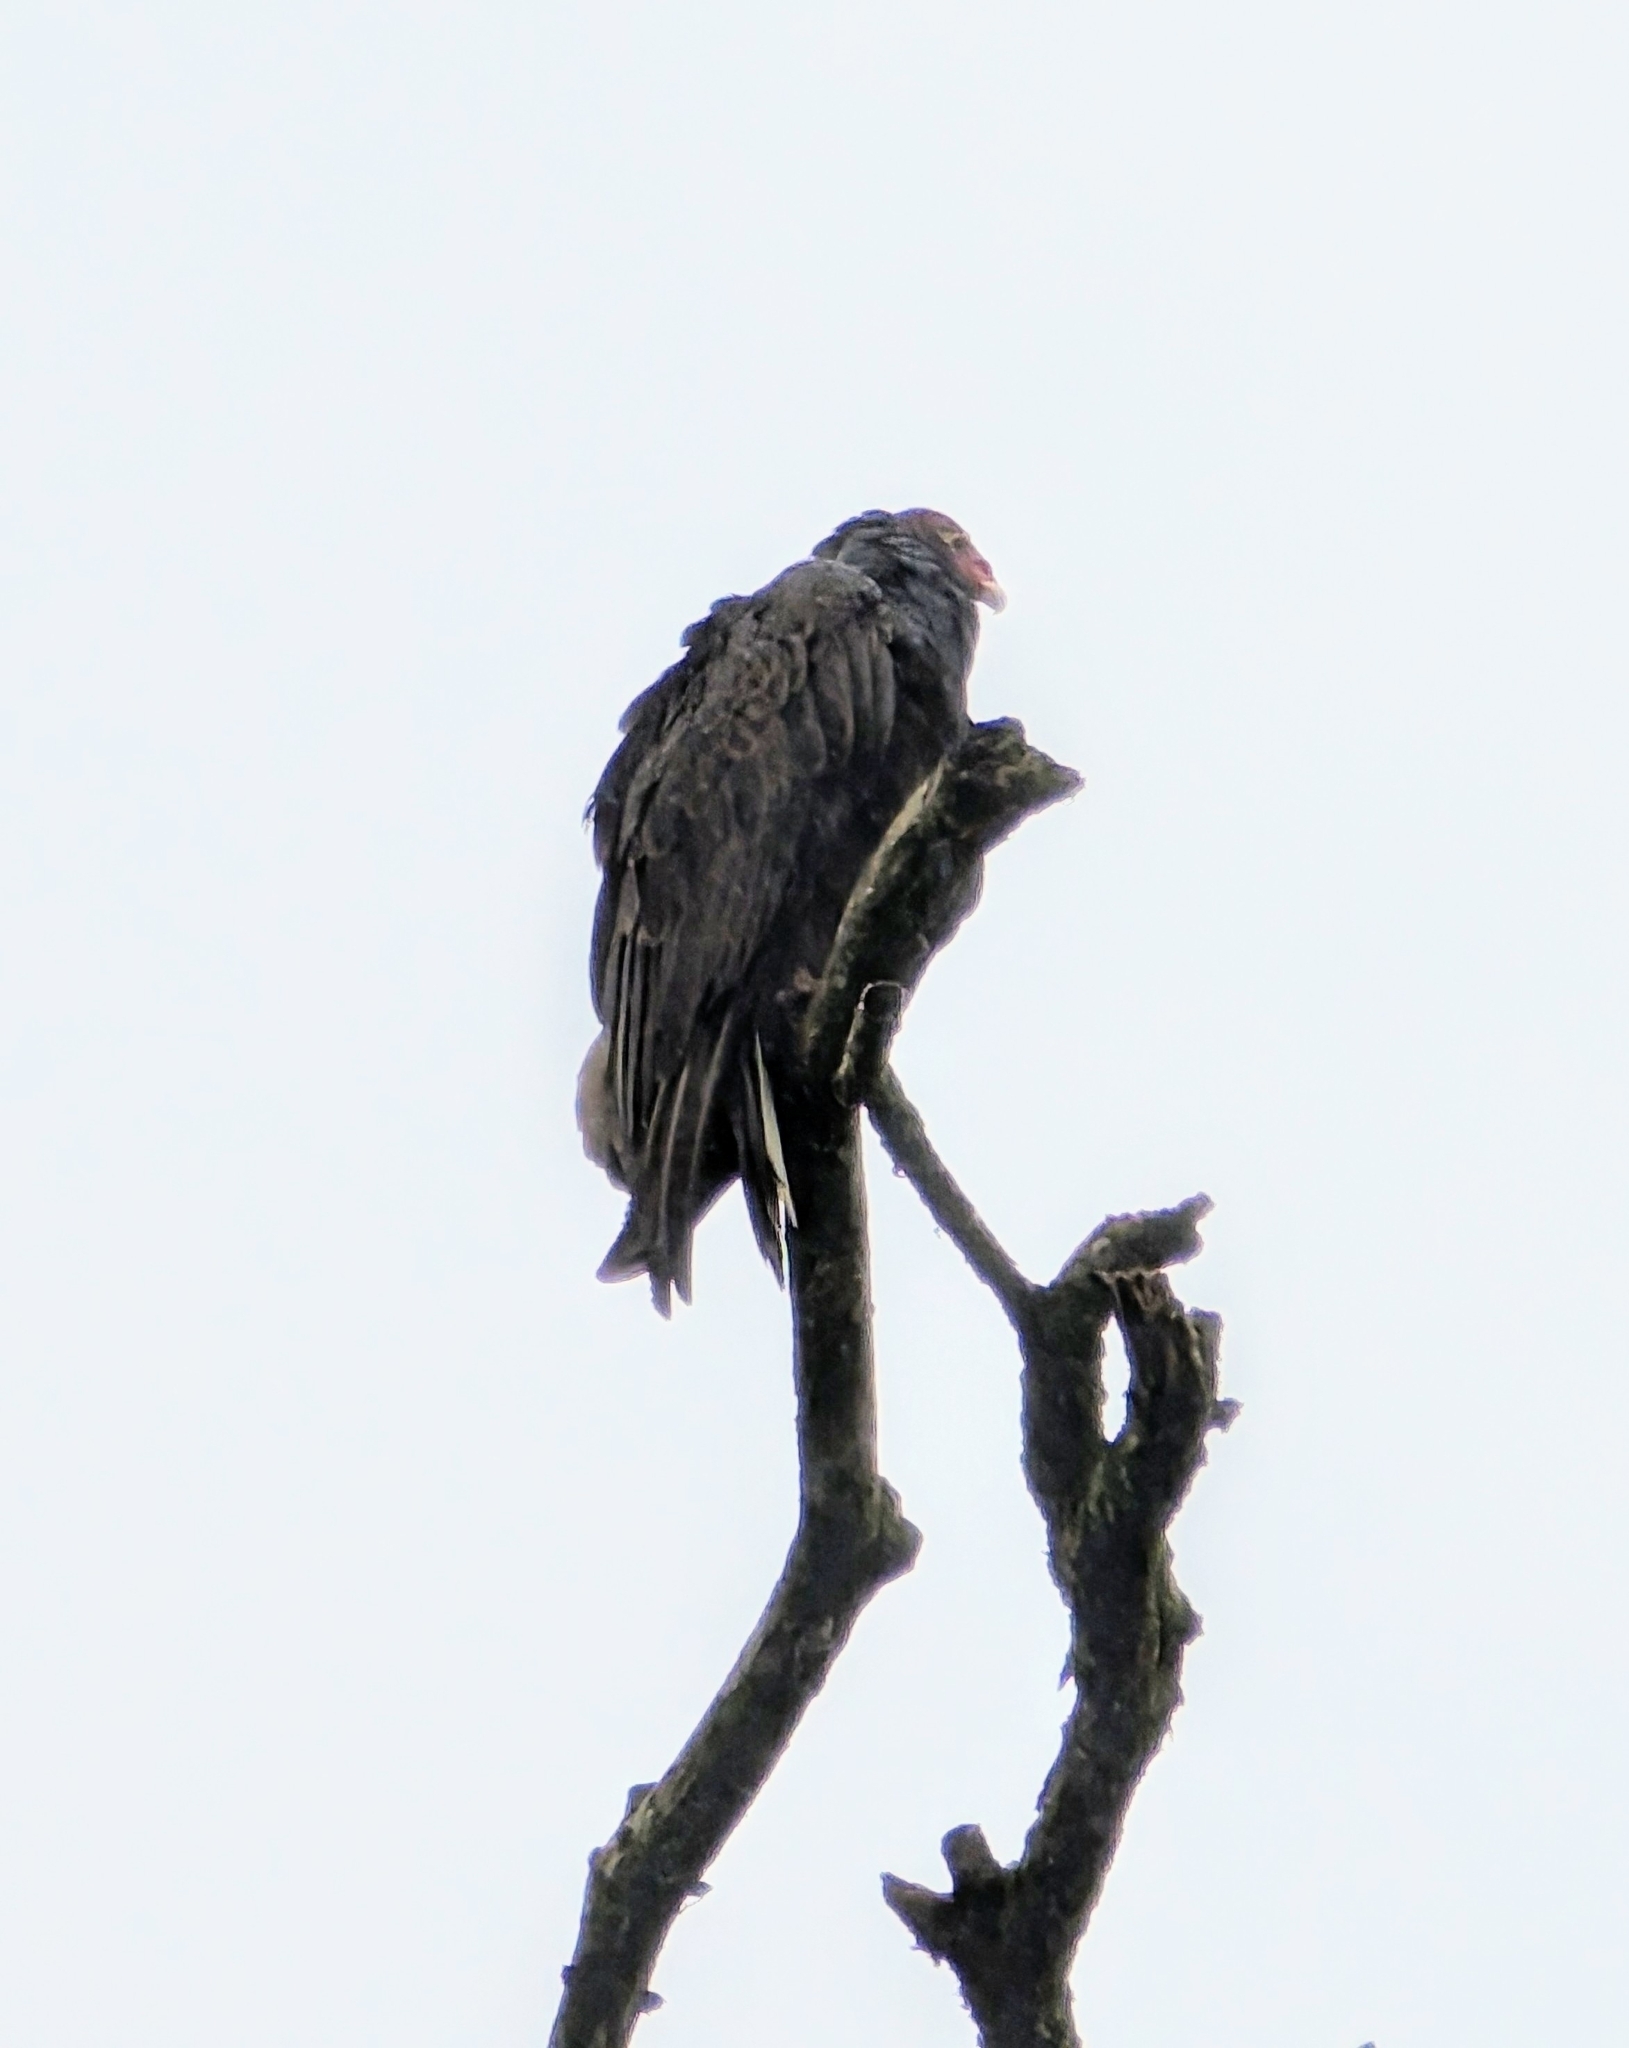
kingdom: Animalia
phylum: Chordata
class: Aves
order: Accipitriformes
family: Cathartidae
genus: Cathartes
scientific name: Cathartes aura
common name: Turkey vulture
